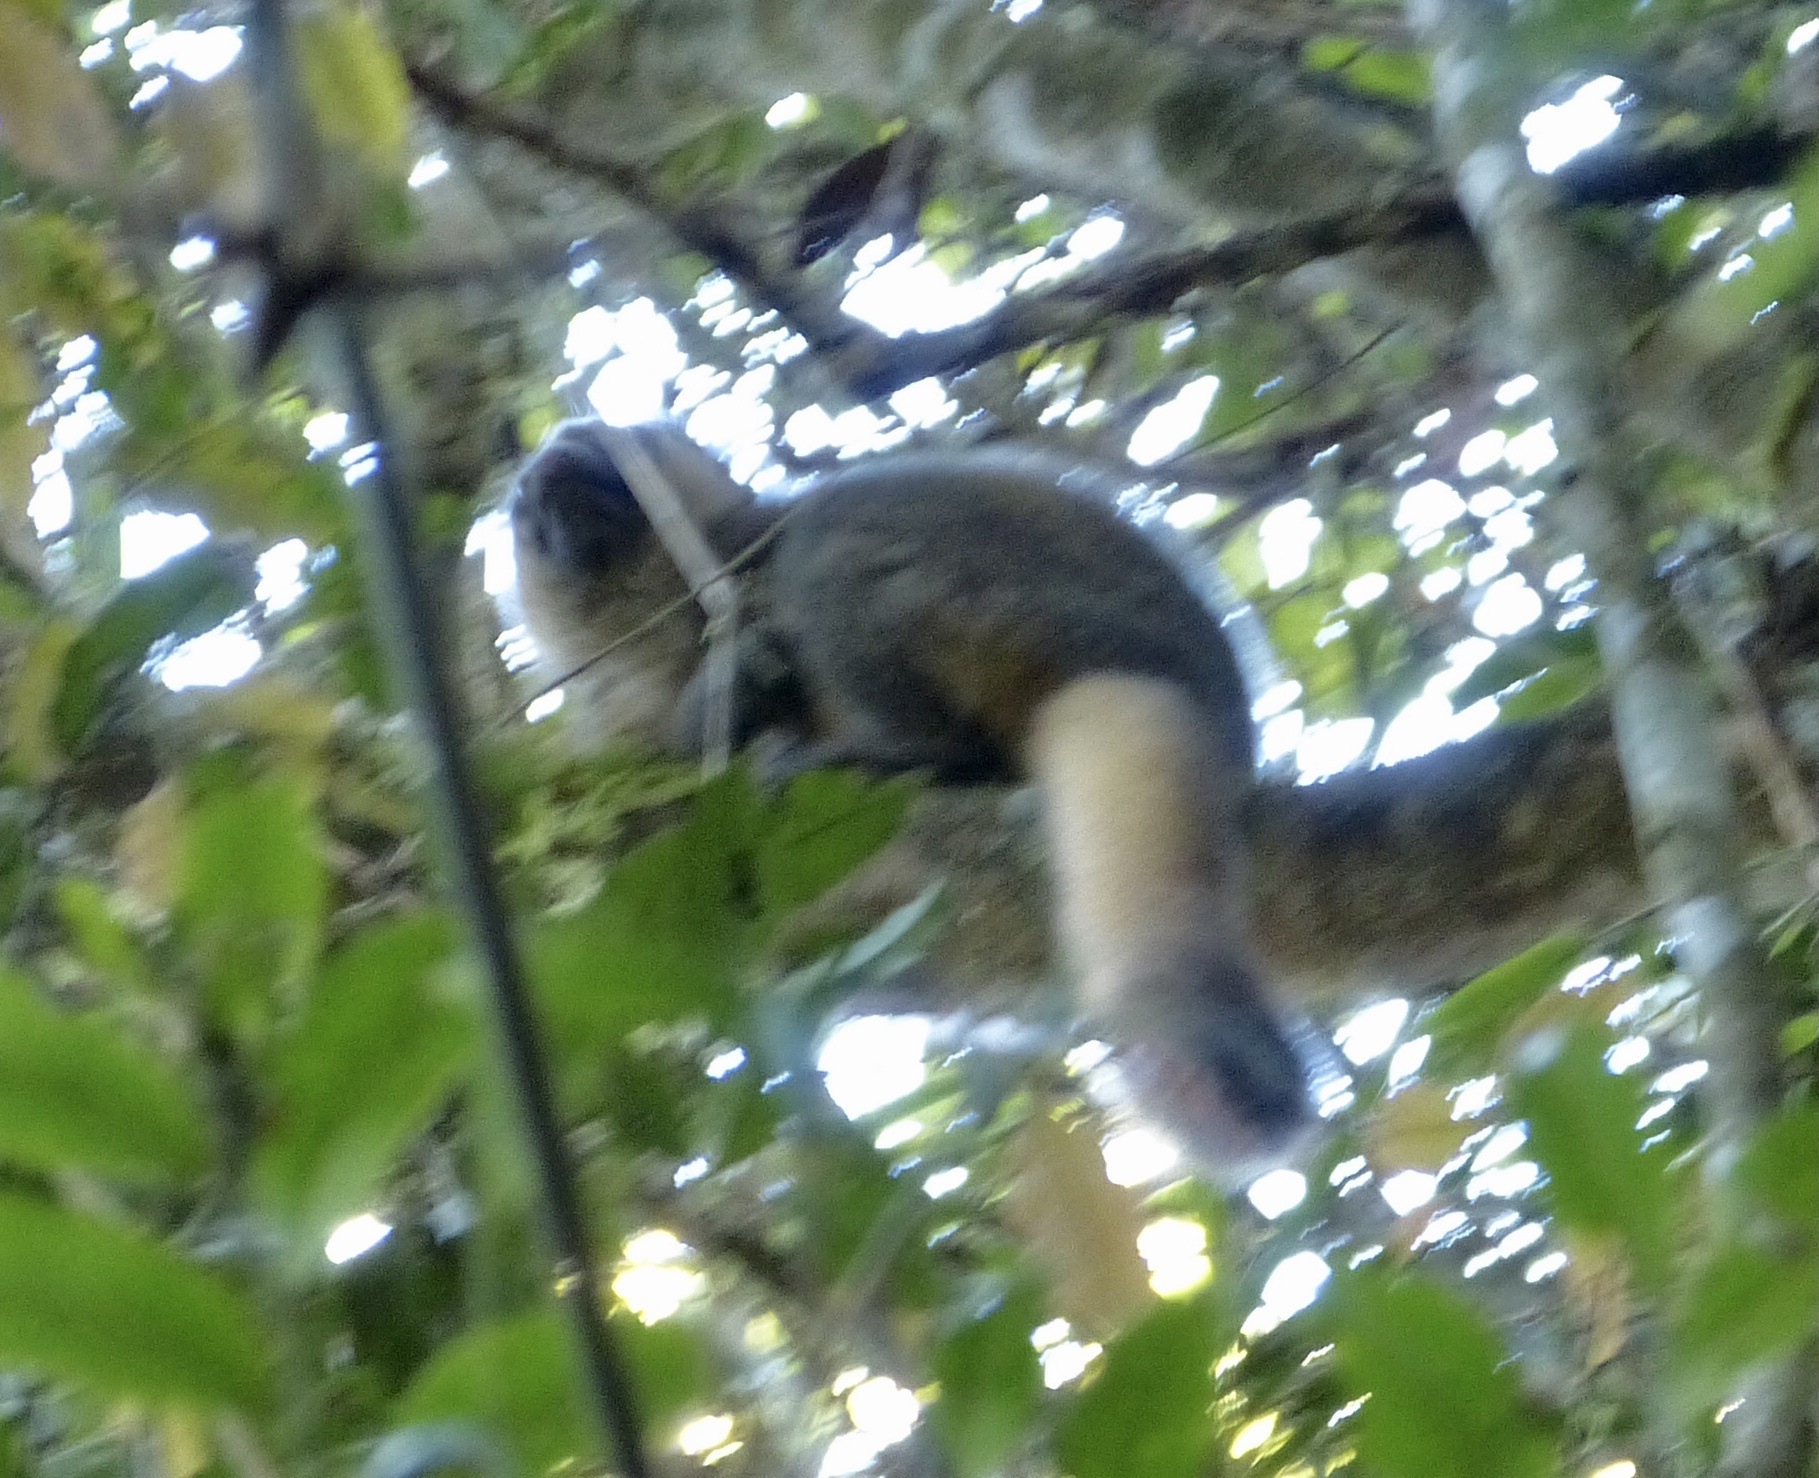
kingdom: Animalia
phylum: Chordata
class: Mammalia
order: Primates
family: Lemuridae
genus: Hapalemur
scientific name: Hapalemur aureus
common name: Golden bamboo lemur
